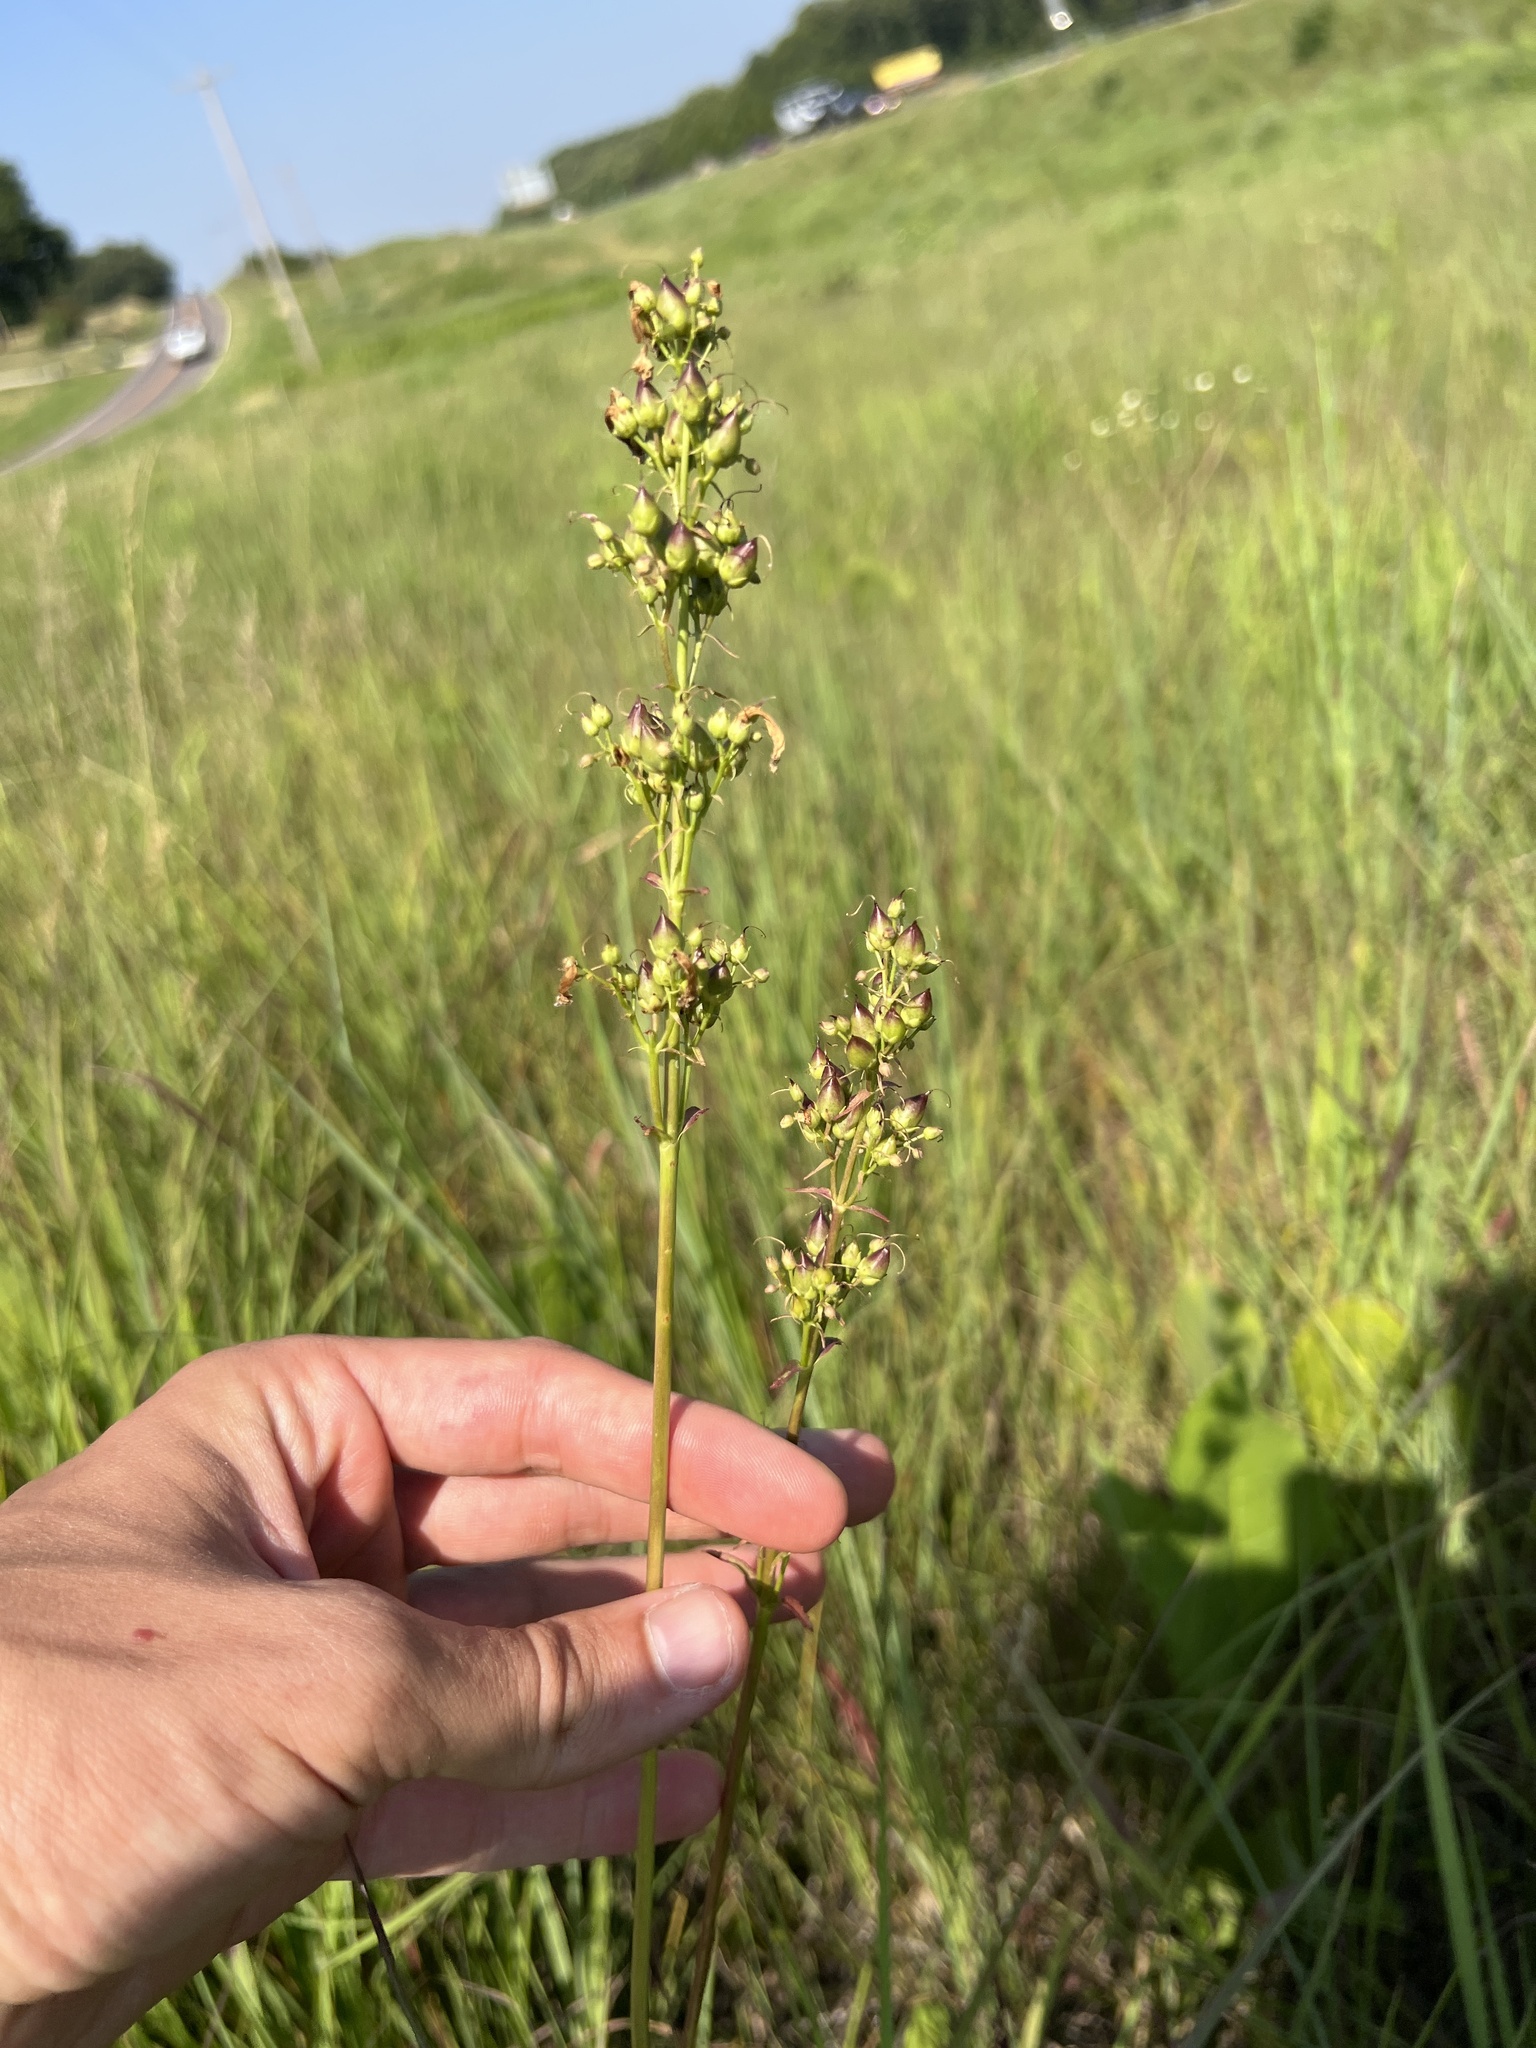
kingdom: Plantae
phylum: Tracheophyta
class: Magnoliopsida
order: Lamiales
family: Plantaginaceae
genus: Penstemon
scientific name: Penstemon tubaeflorus
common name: White wand beardtongue
